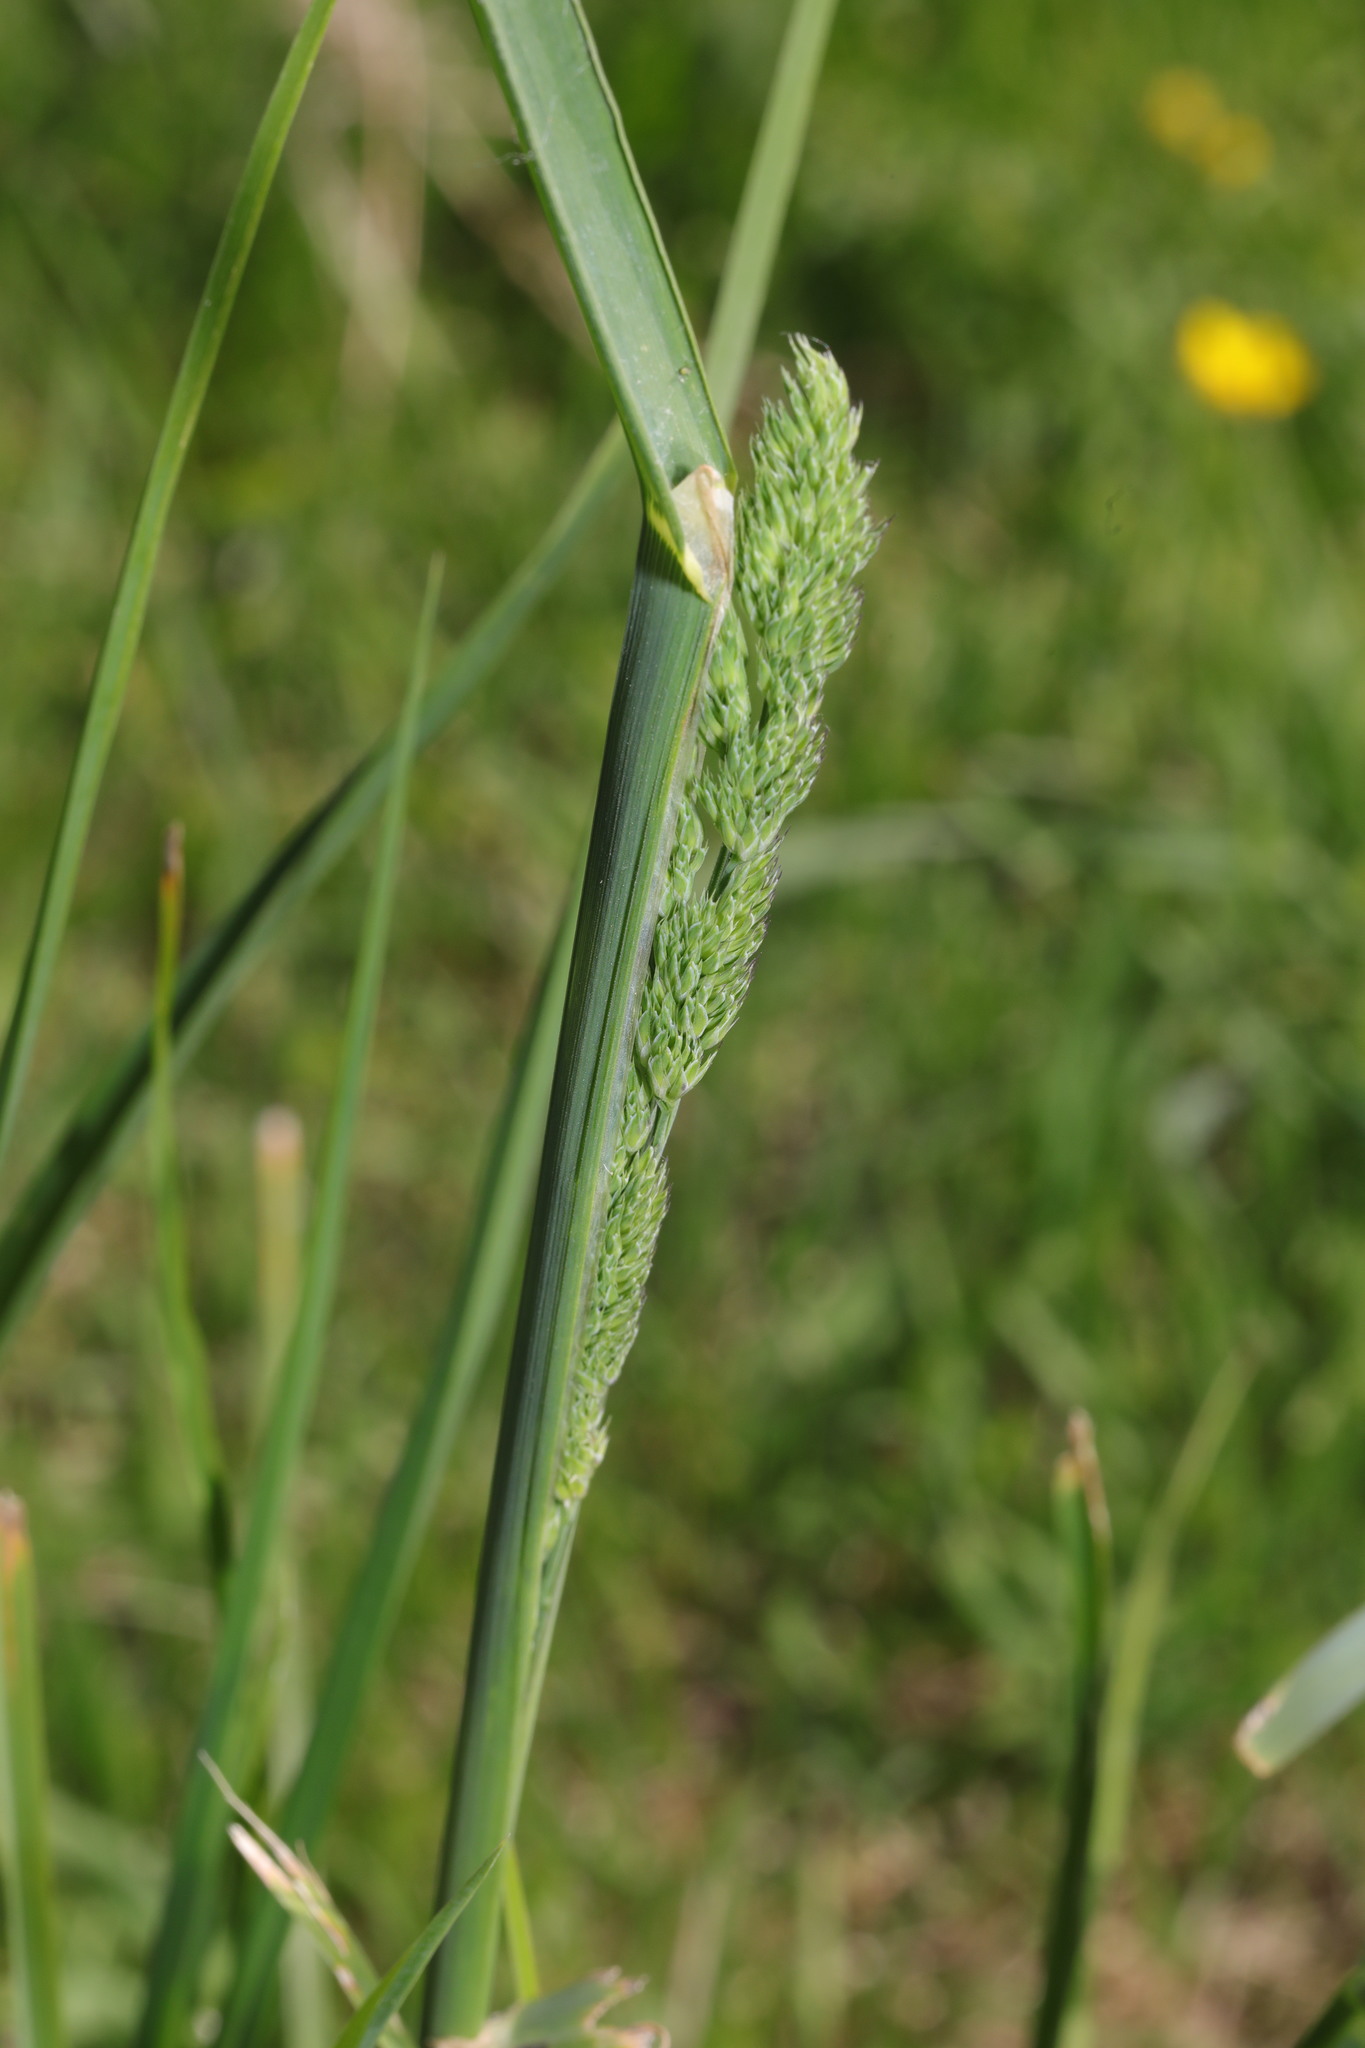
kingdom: Plantae
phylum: Tracheophyta
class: Liliopsida
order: Poales
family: Poaceae
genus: Dactylis
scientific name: Dactylis glomerata
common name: Orchardgrass
